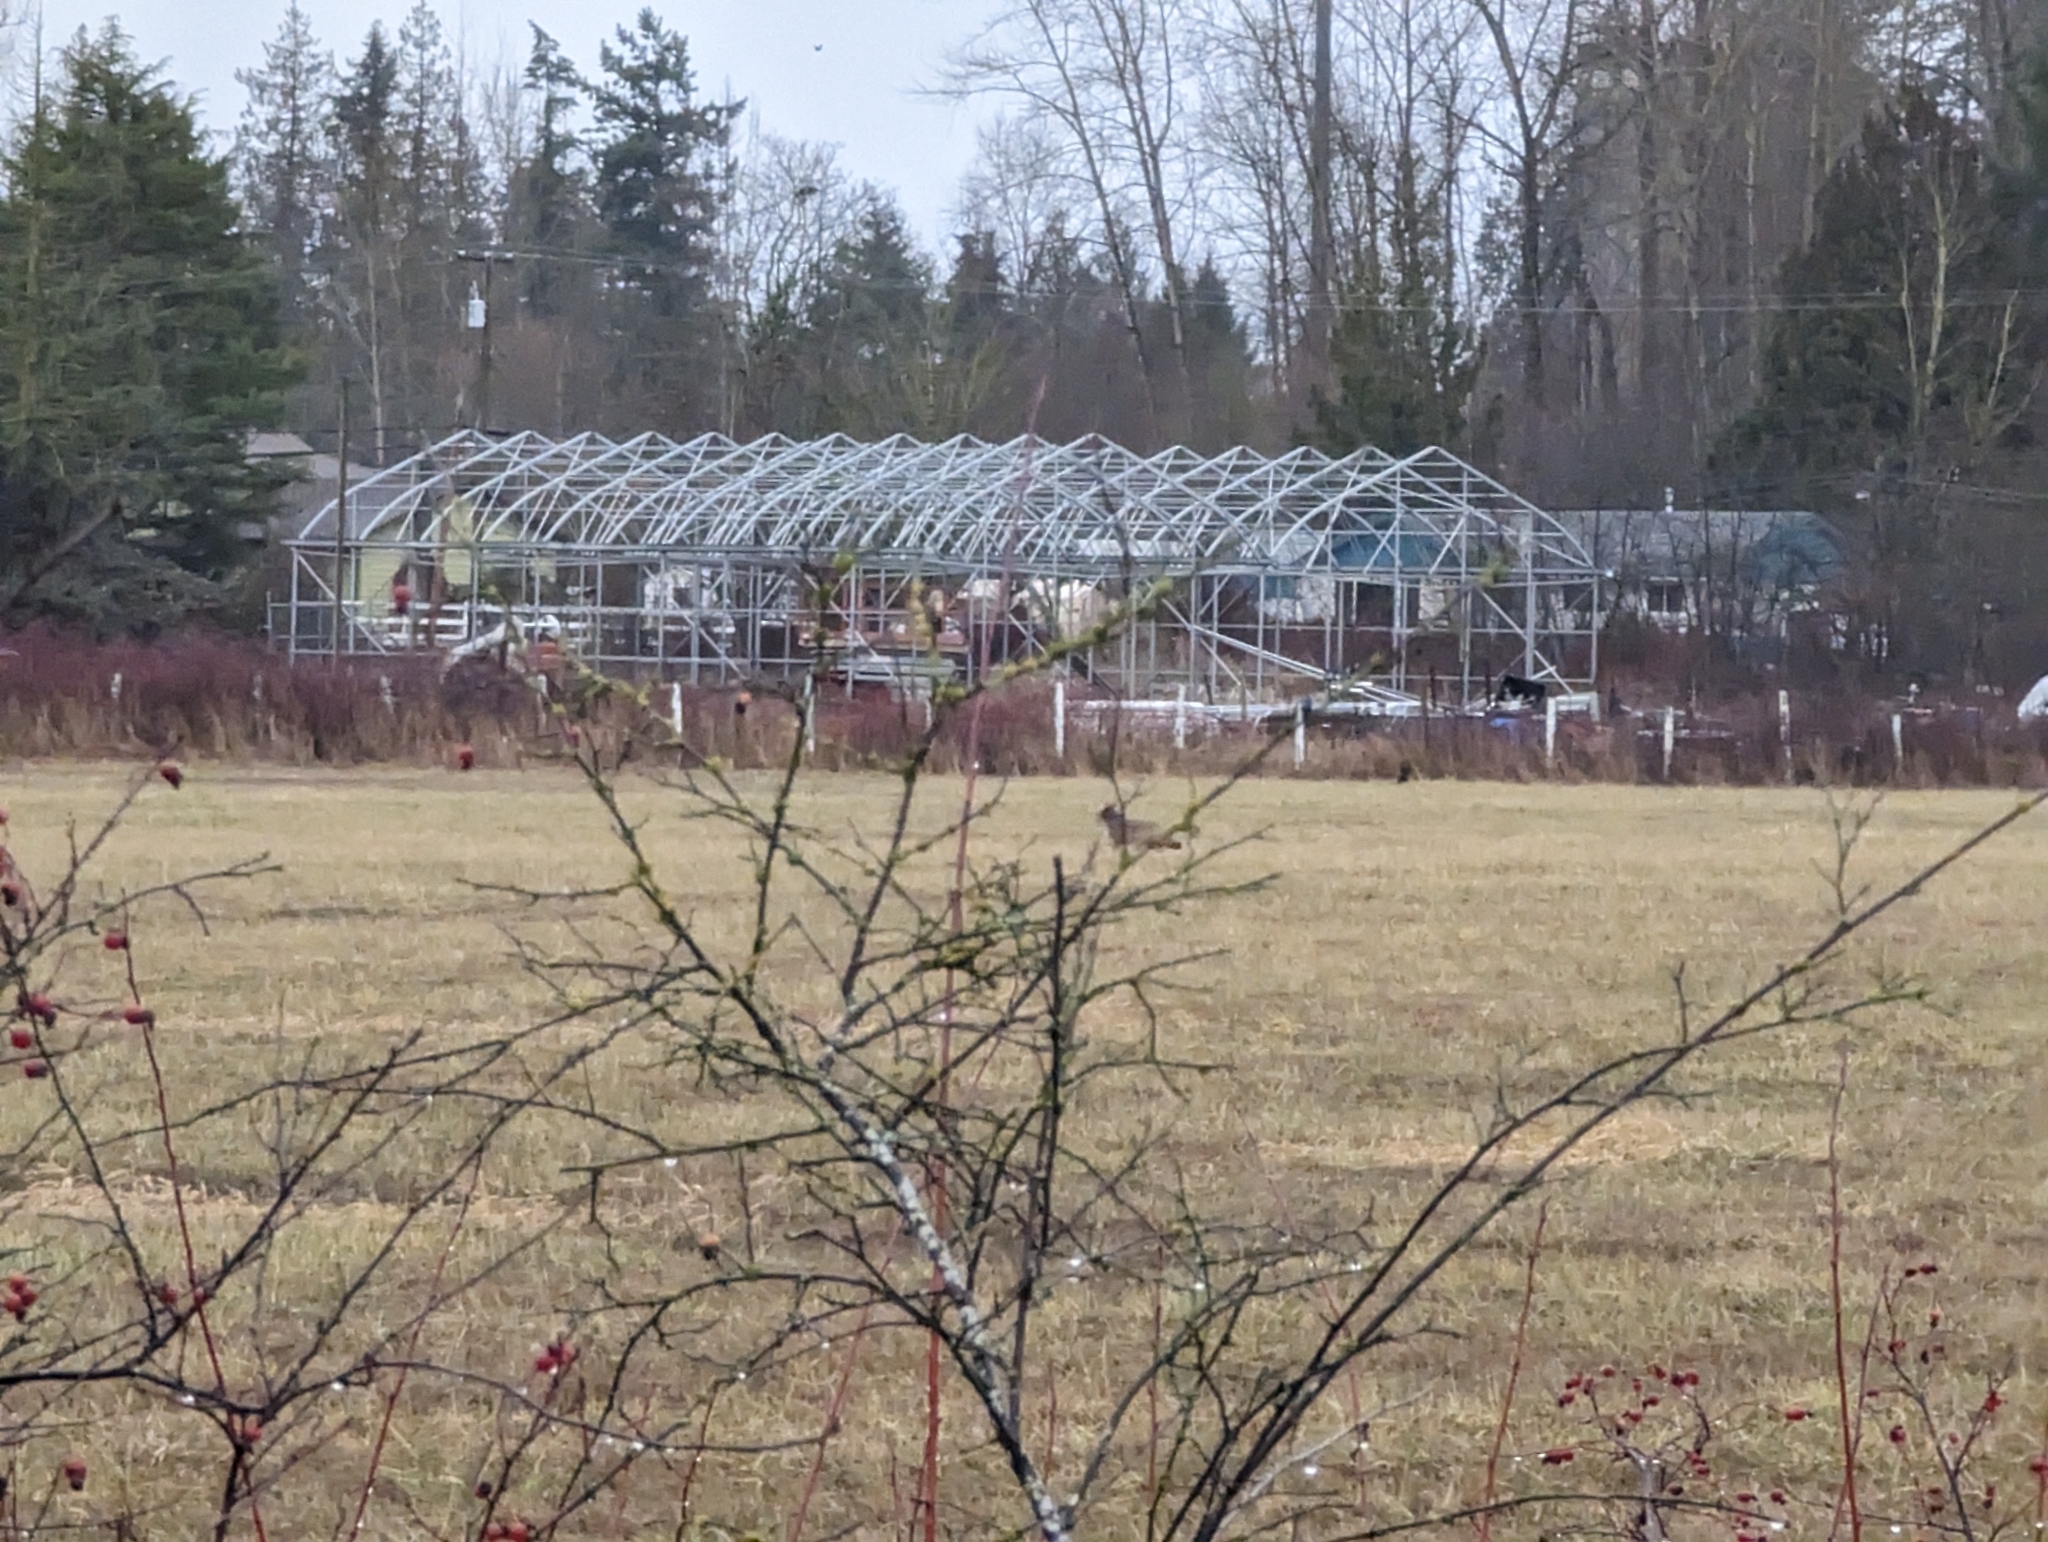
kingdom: Animalia
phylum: Chordata
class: Mammalia
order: Carnivora
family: Canidae
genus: Canis
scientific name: Canis latrans
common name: Coyote
